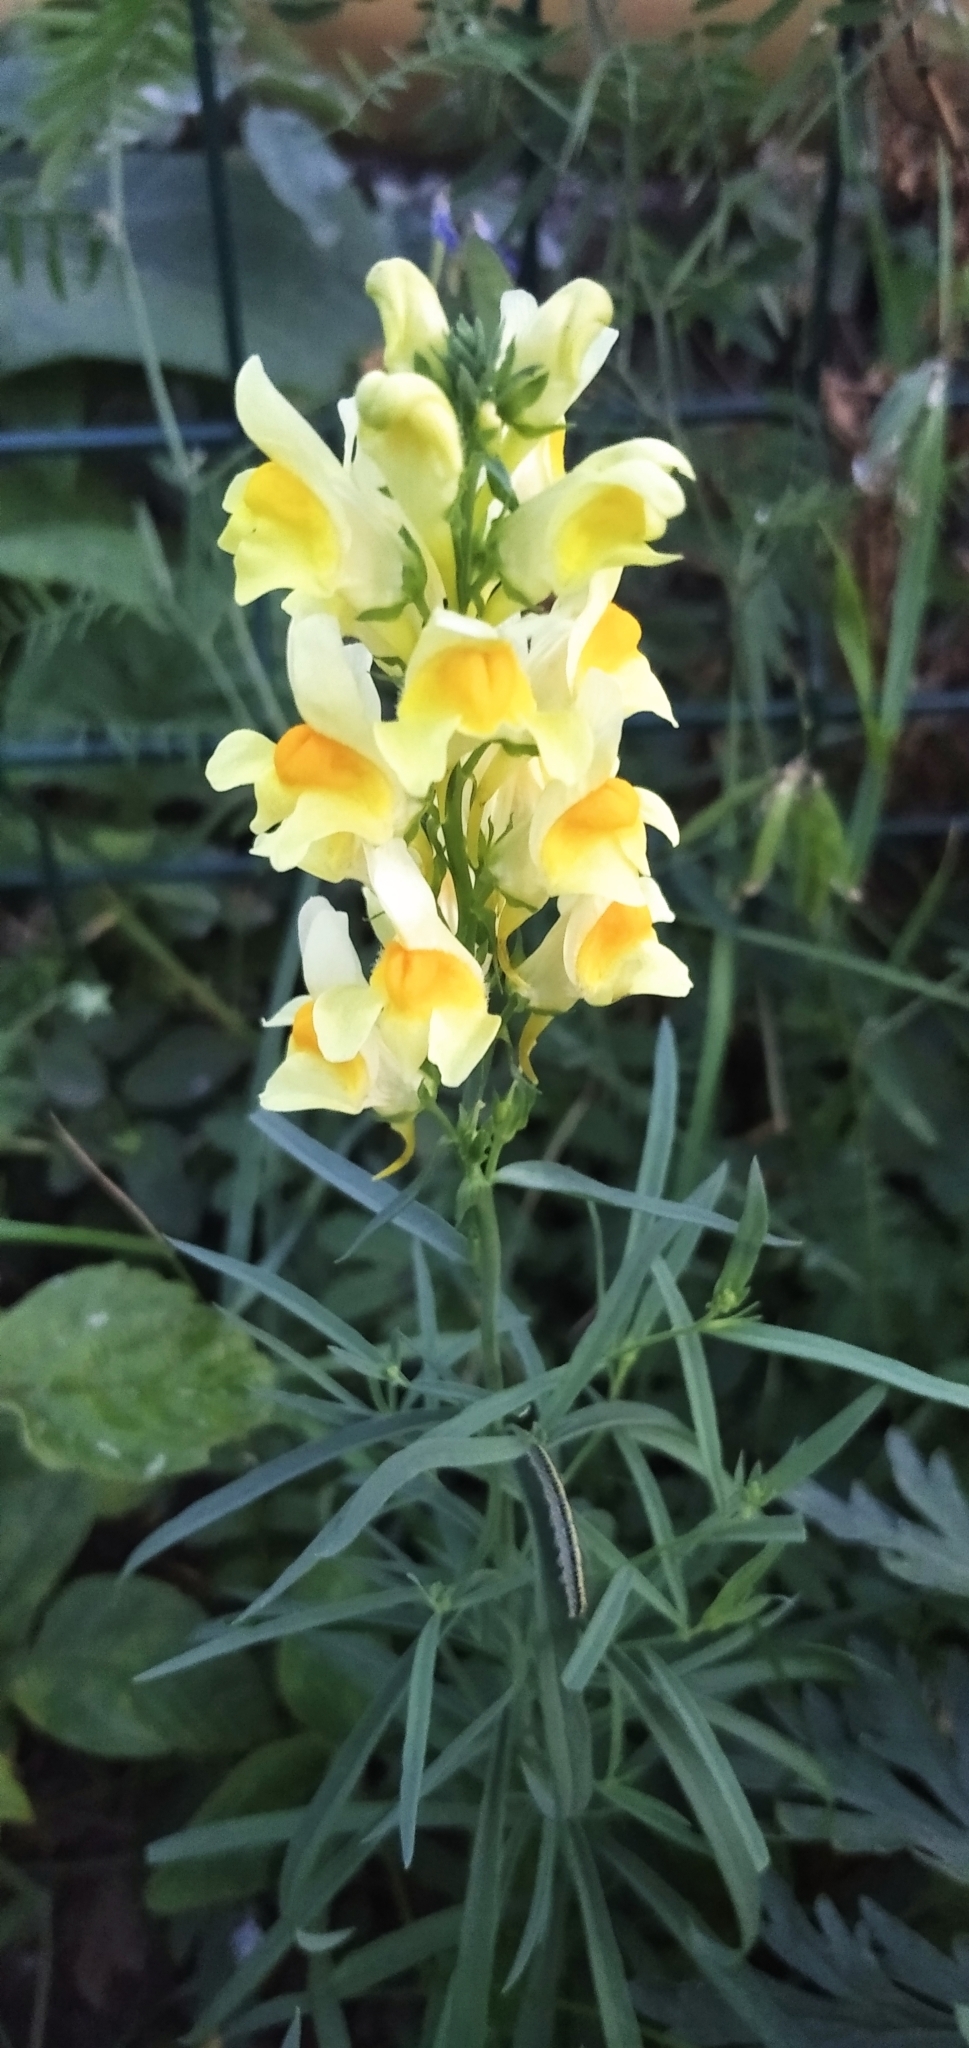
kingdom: Plantae
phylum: Tracheophyta
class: Magnoliopsida
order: Lamiales
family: Plantaginaceae
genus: Linaria
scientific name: Linaria vulgaris
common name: Butter and eggs
